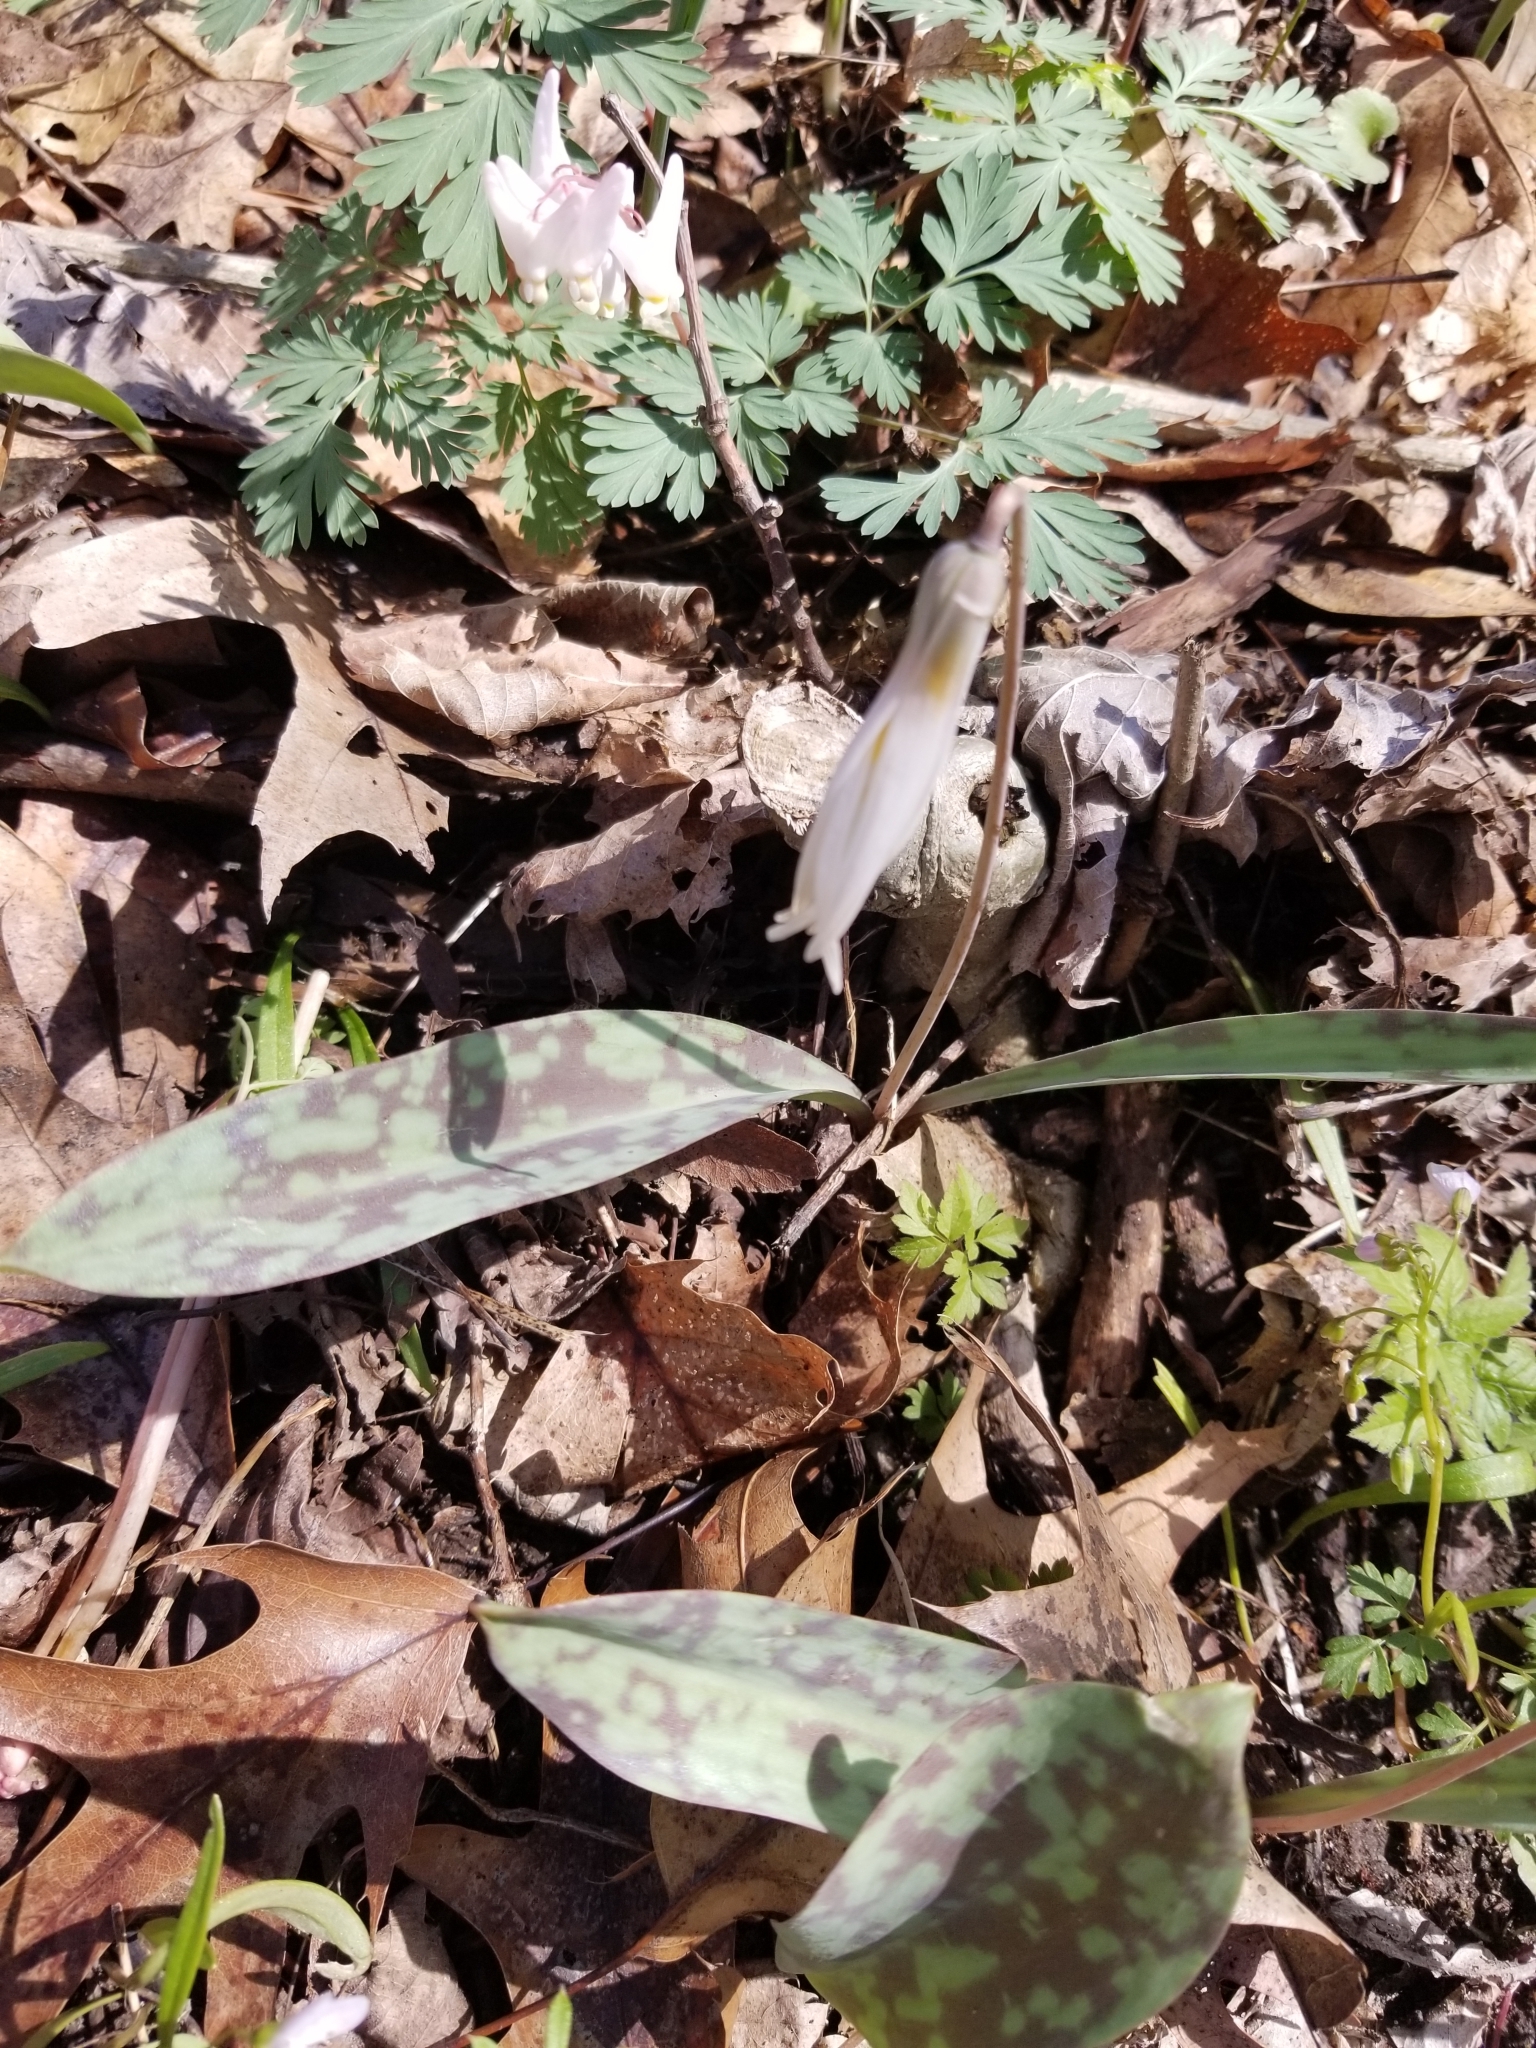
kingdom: Plantae
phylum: Tracheophyta
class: Liliopsida
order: Liliales
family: Liliaceae
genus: Erythronium
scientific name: Erythronium albidum
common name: White trout-lily
